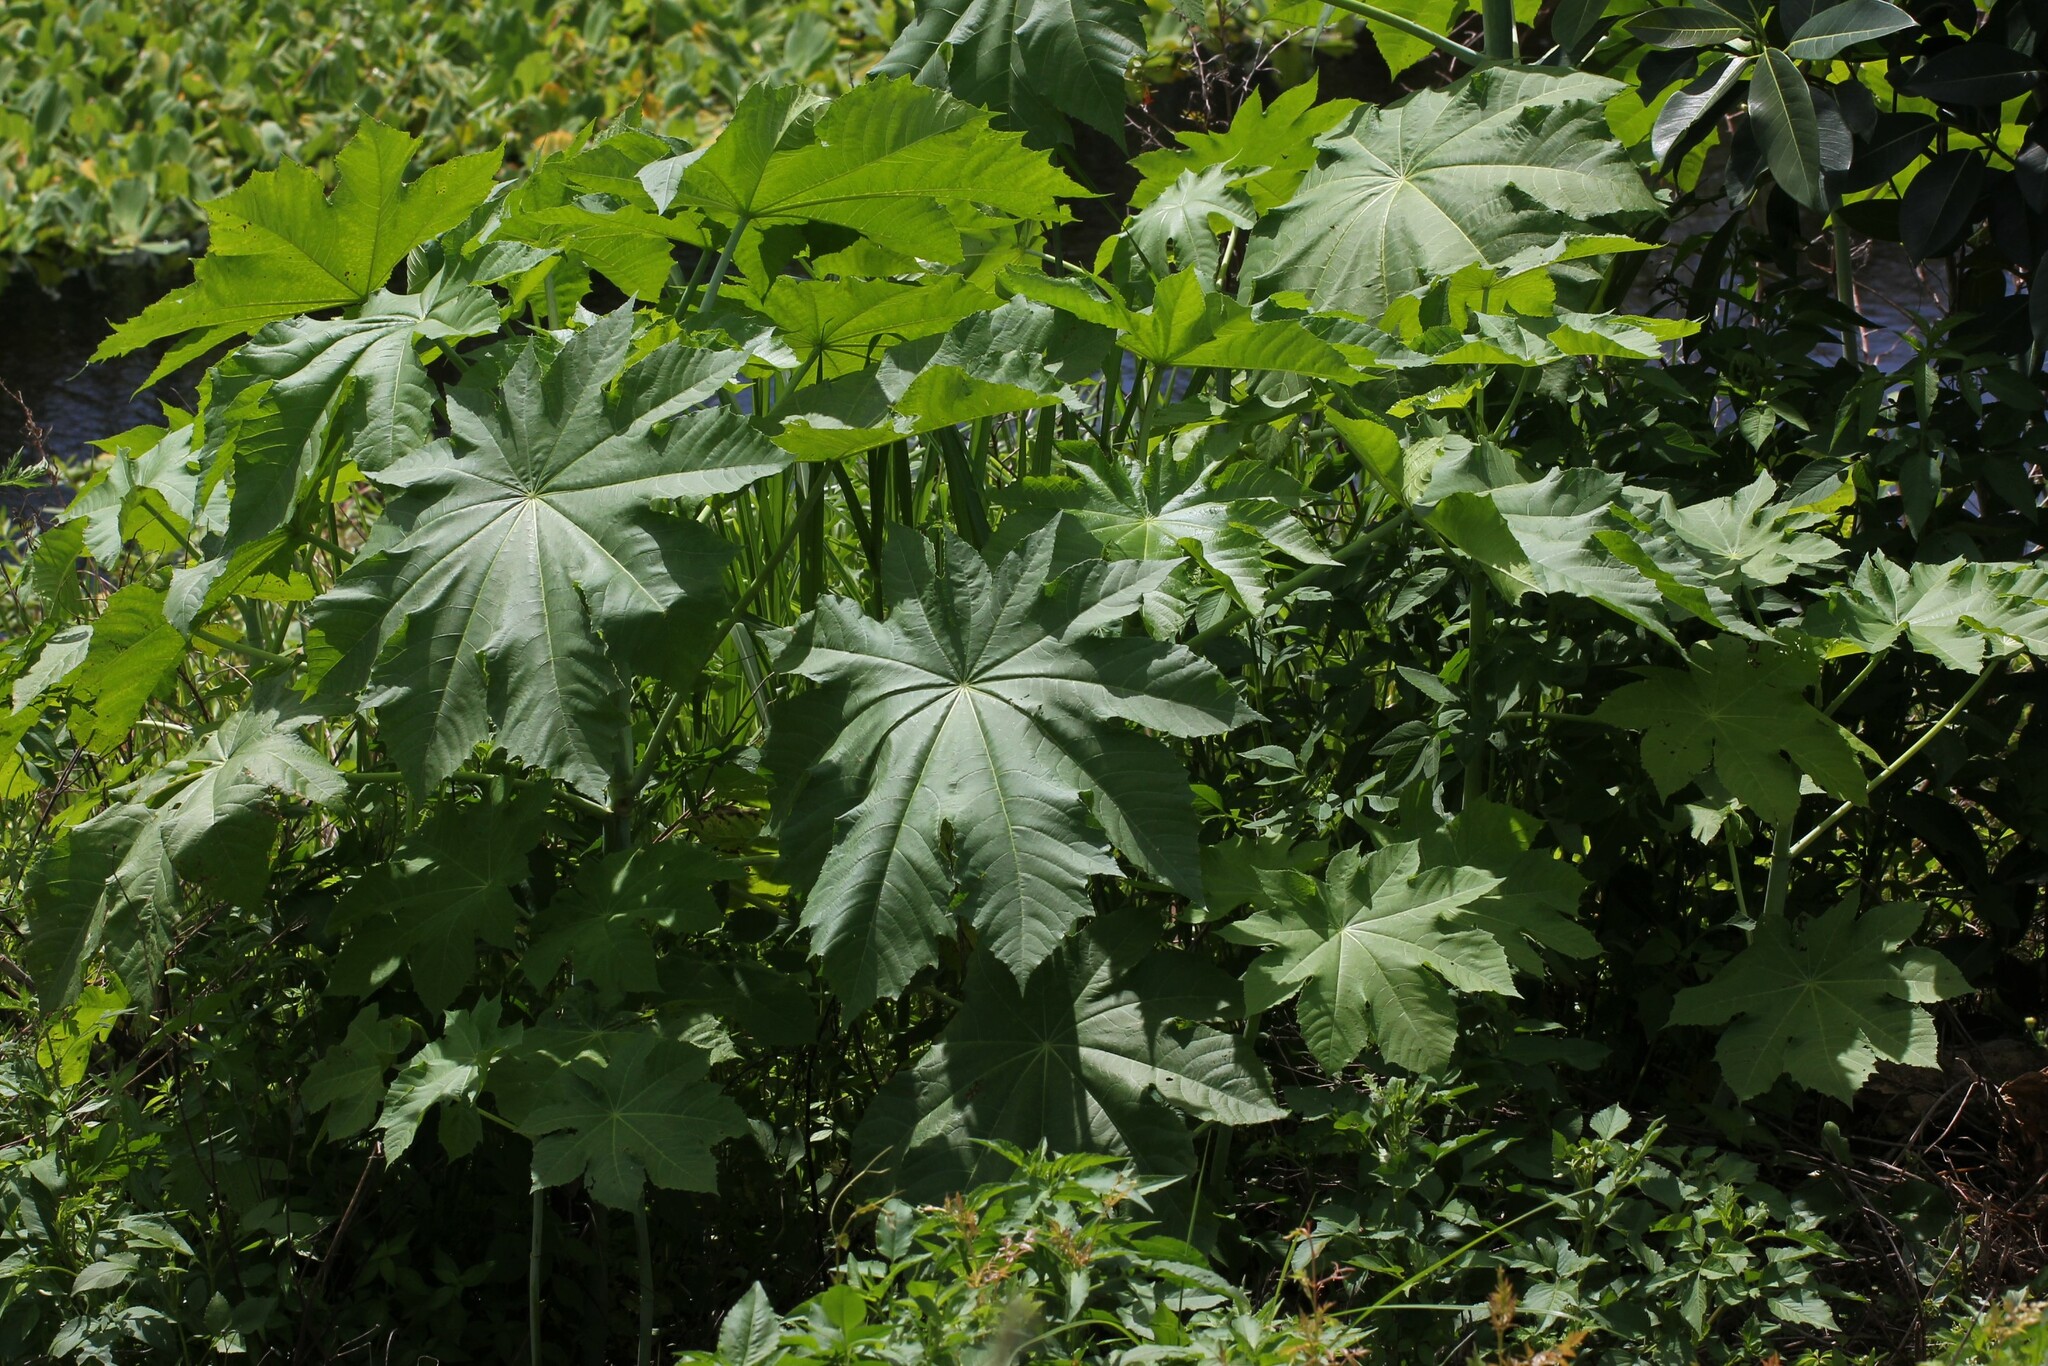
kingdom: Plantae
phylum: Tracheophyta
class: Magnoliopsida
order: Malpighiales
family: Euphorbiaceae
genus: Ricinus
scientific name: Ricinus communis
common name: Castor-oil-plant
